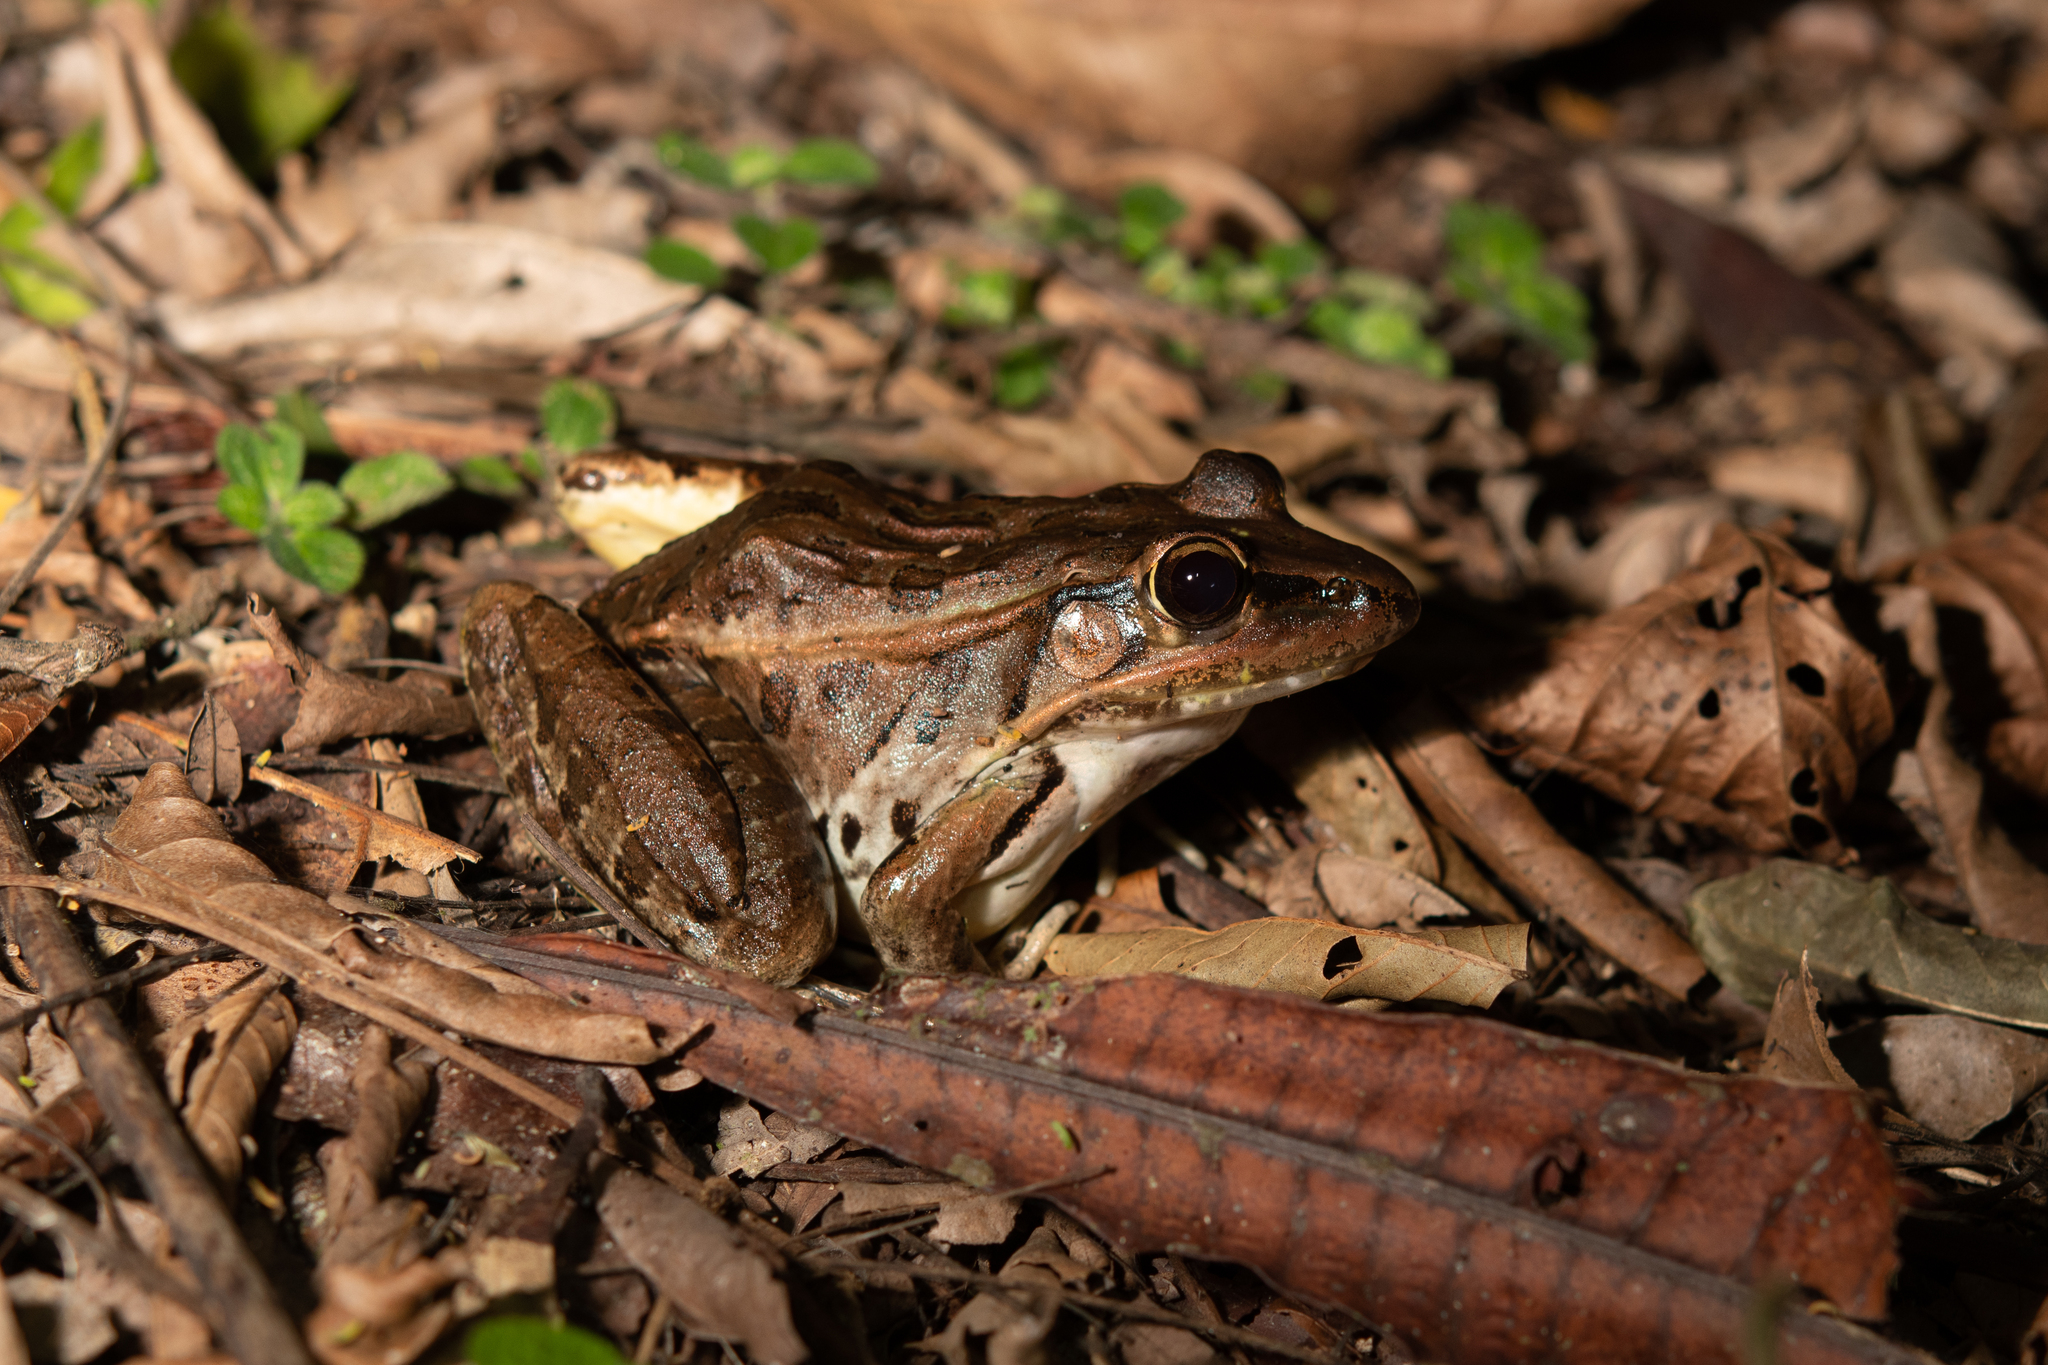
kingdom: Animalia
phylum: Chordata
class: Amphibia
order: Anura
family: Ranidae
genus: Lithobates
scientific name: Lithobates brownorum
